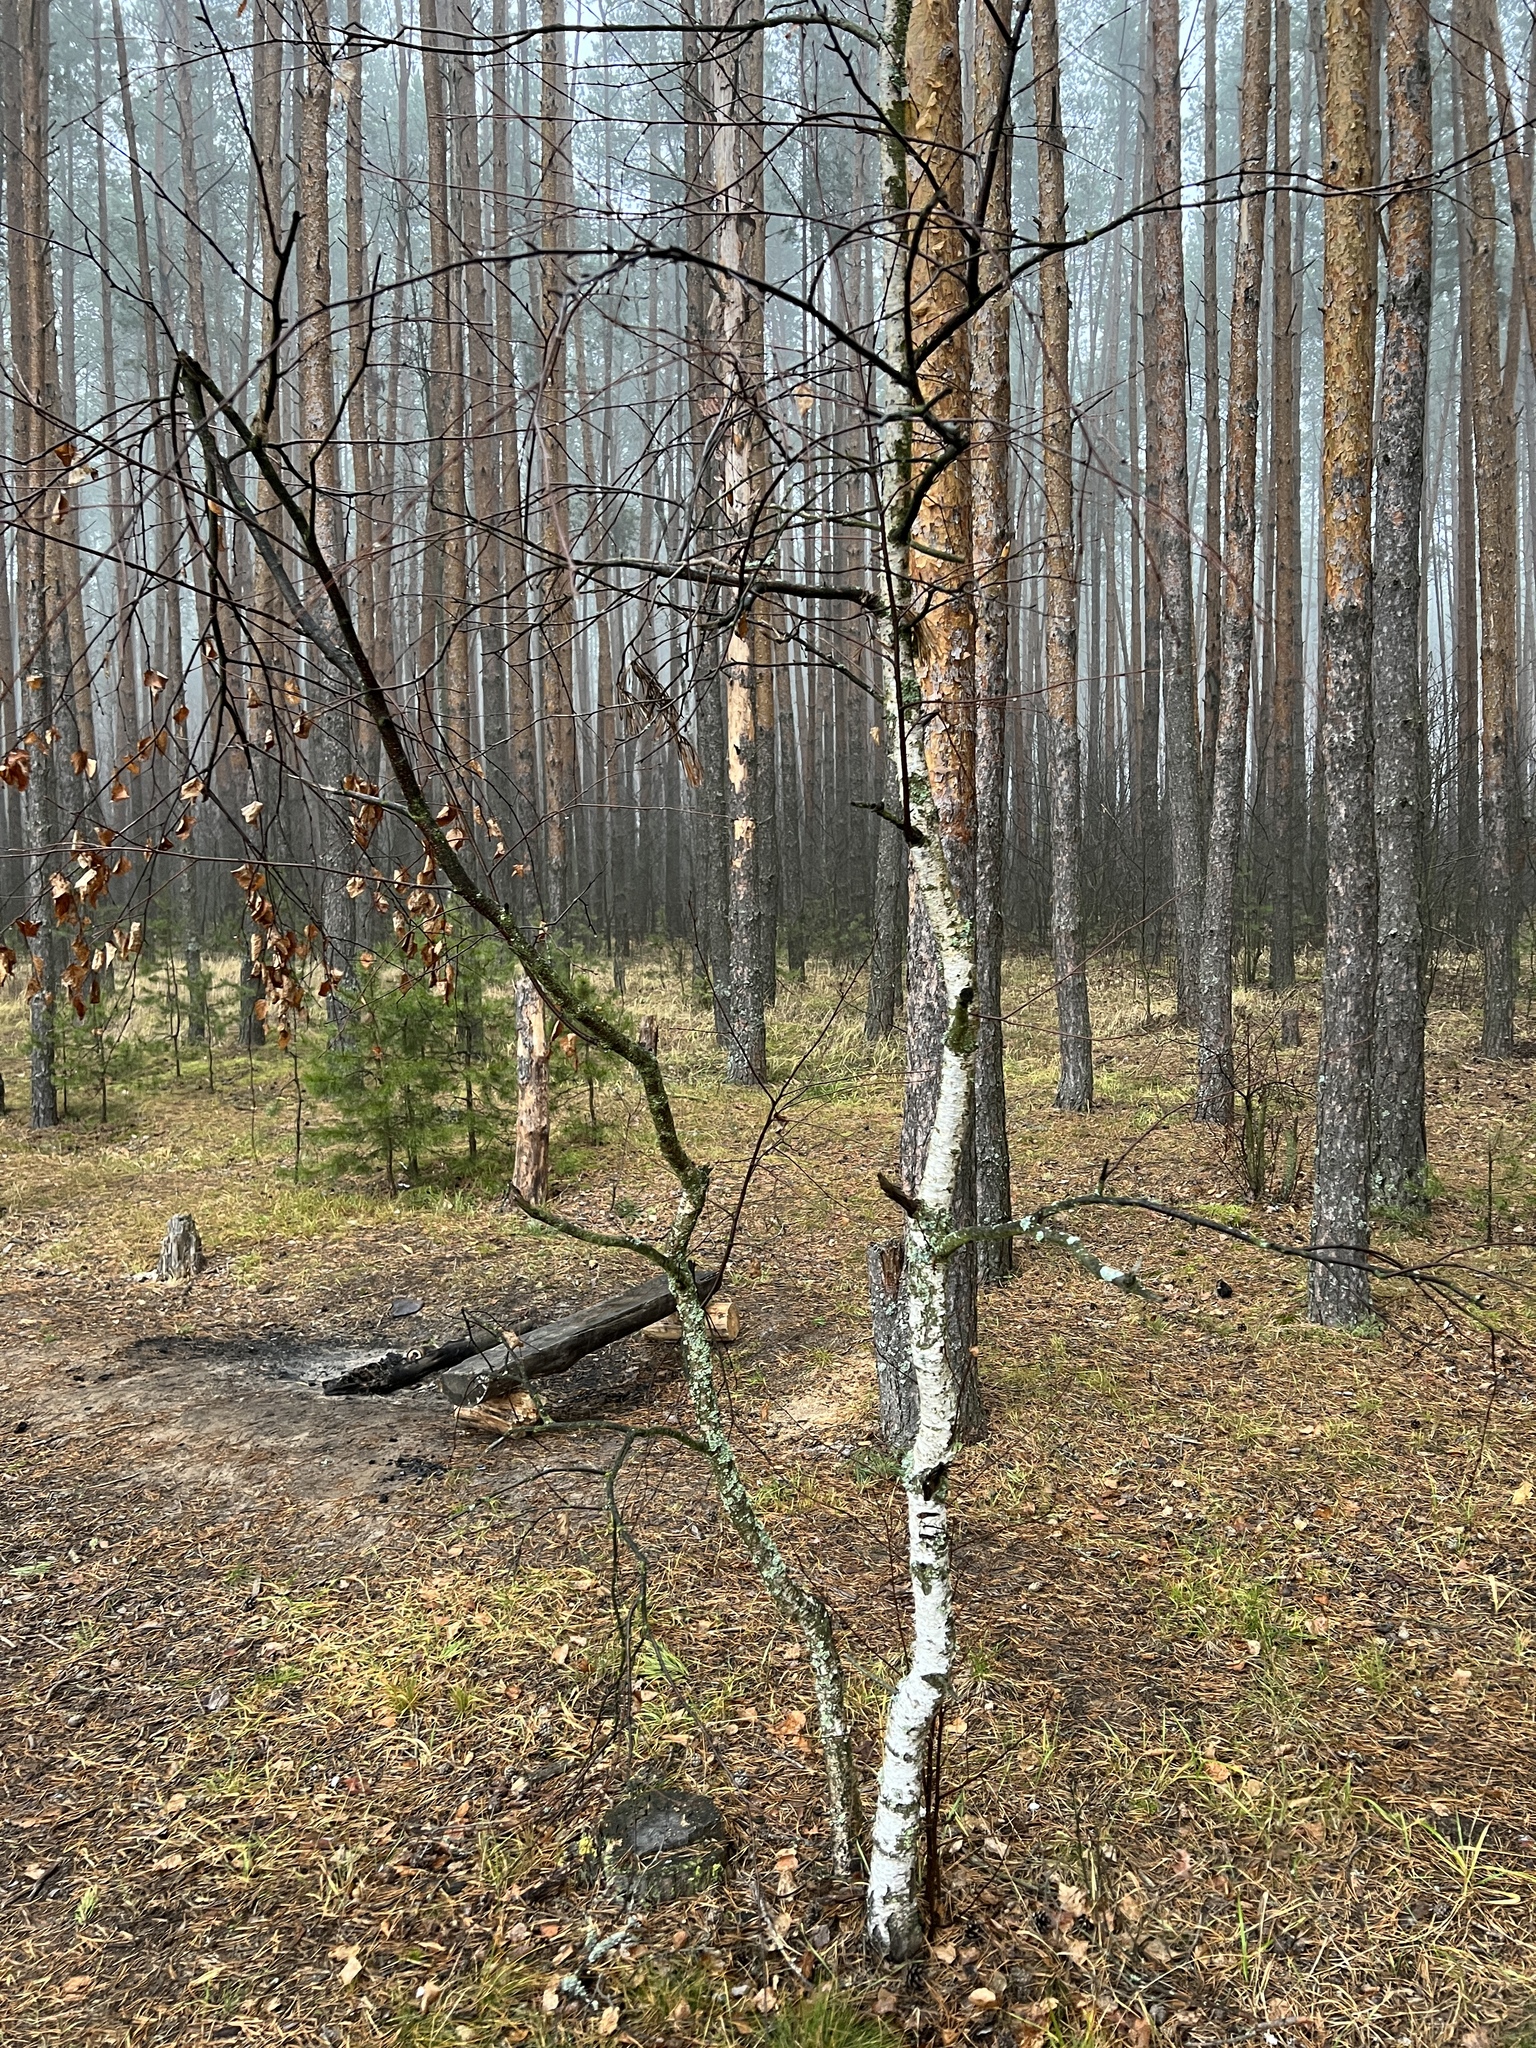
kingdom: Plantae
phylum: Tracheophyta
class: Magnoliopsida
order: Fagales
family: Betulaceae
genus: Betula
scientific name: Betula pendula
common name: Silver birch
